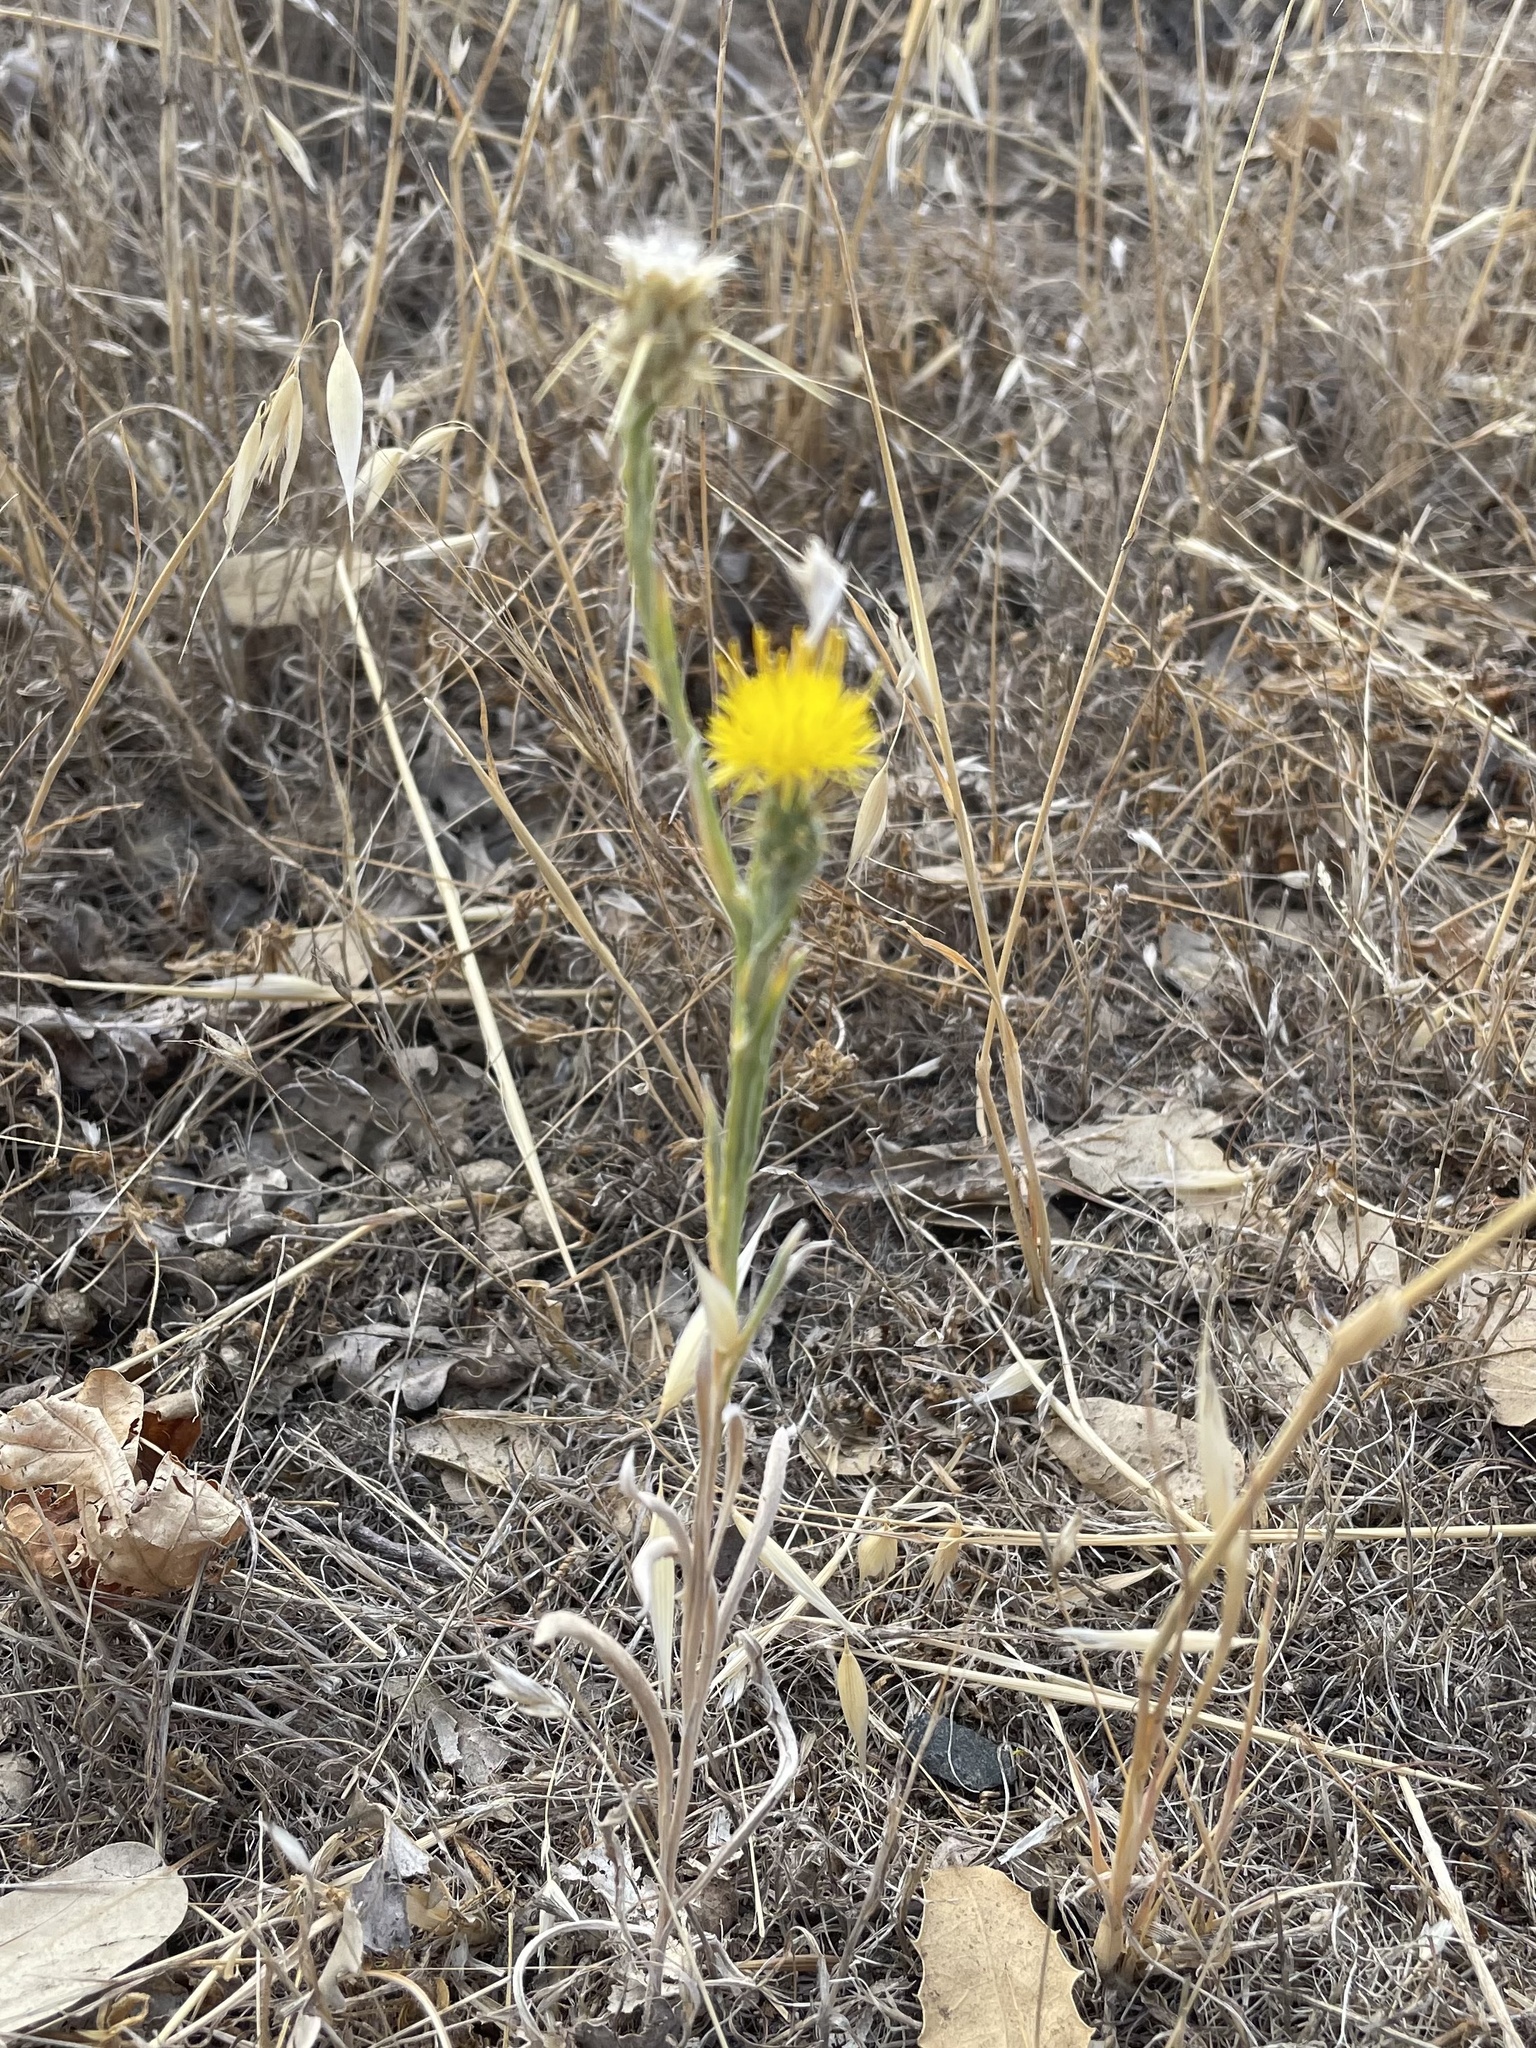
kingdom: Plantae
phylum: Tracheophyta
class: Magnoliopsida
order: Asterales
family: Asteraceae
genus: Centaurea
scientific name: Centaurea solstitialis
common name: Yellow star-thistle
